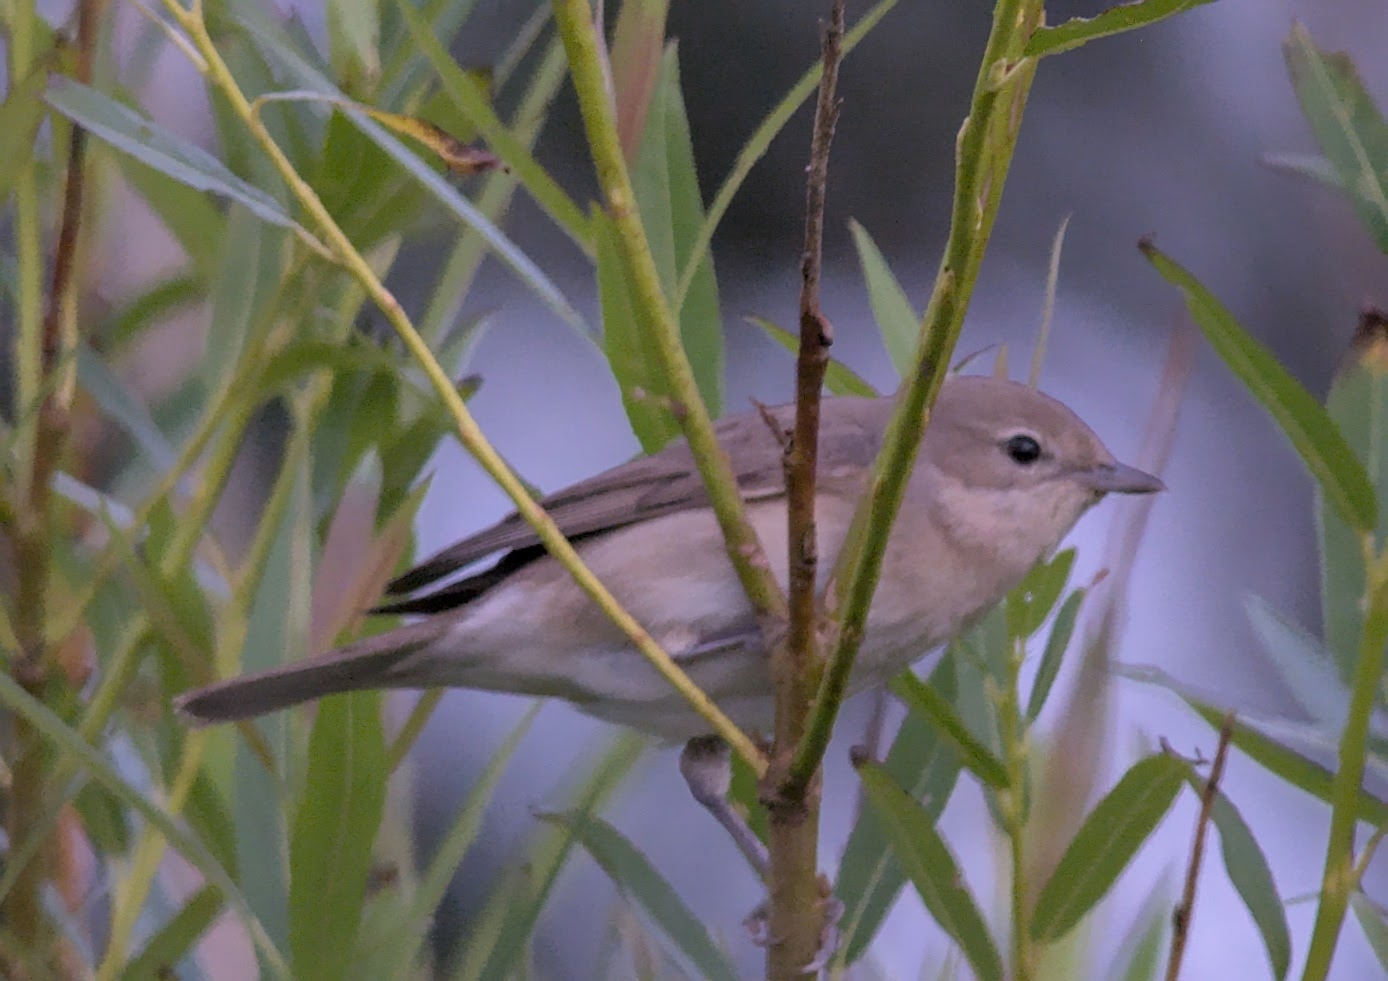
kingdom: Animalia
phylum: Chordata
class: Aves
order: Passeriformes
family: Sylviidae
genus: Sylvia
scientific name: Sylvia borin
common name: Garden warbler
